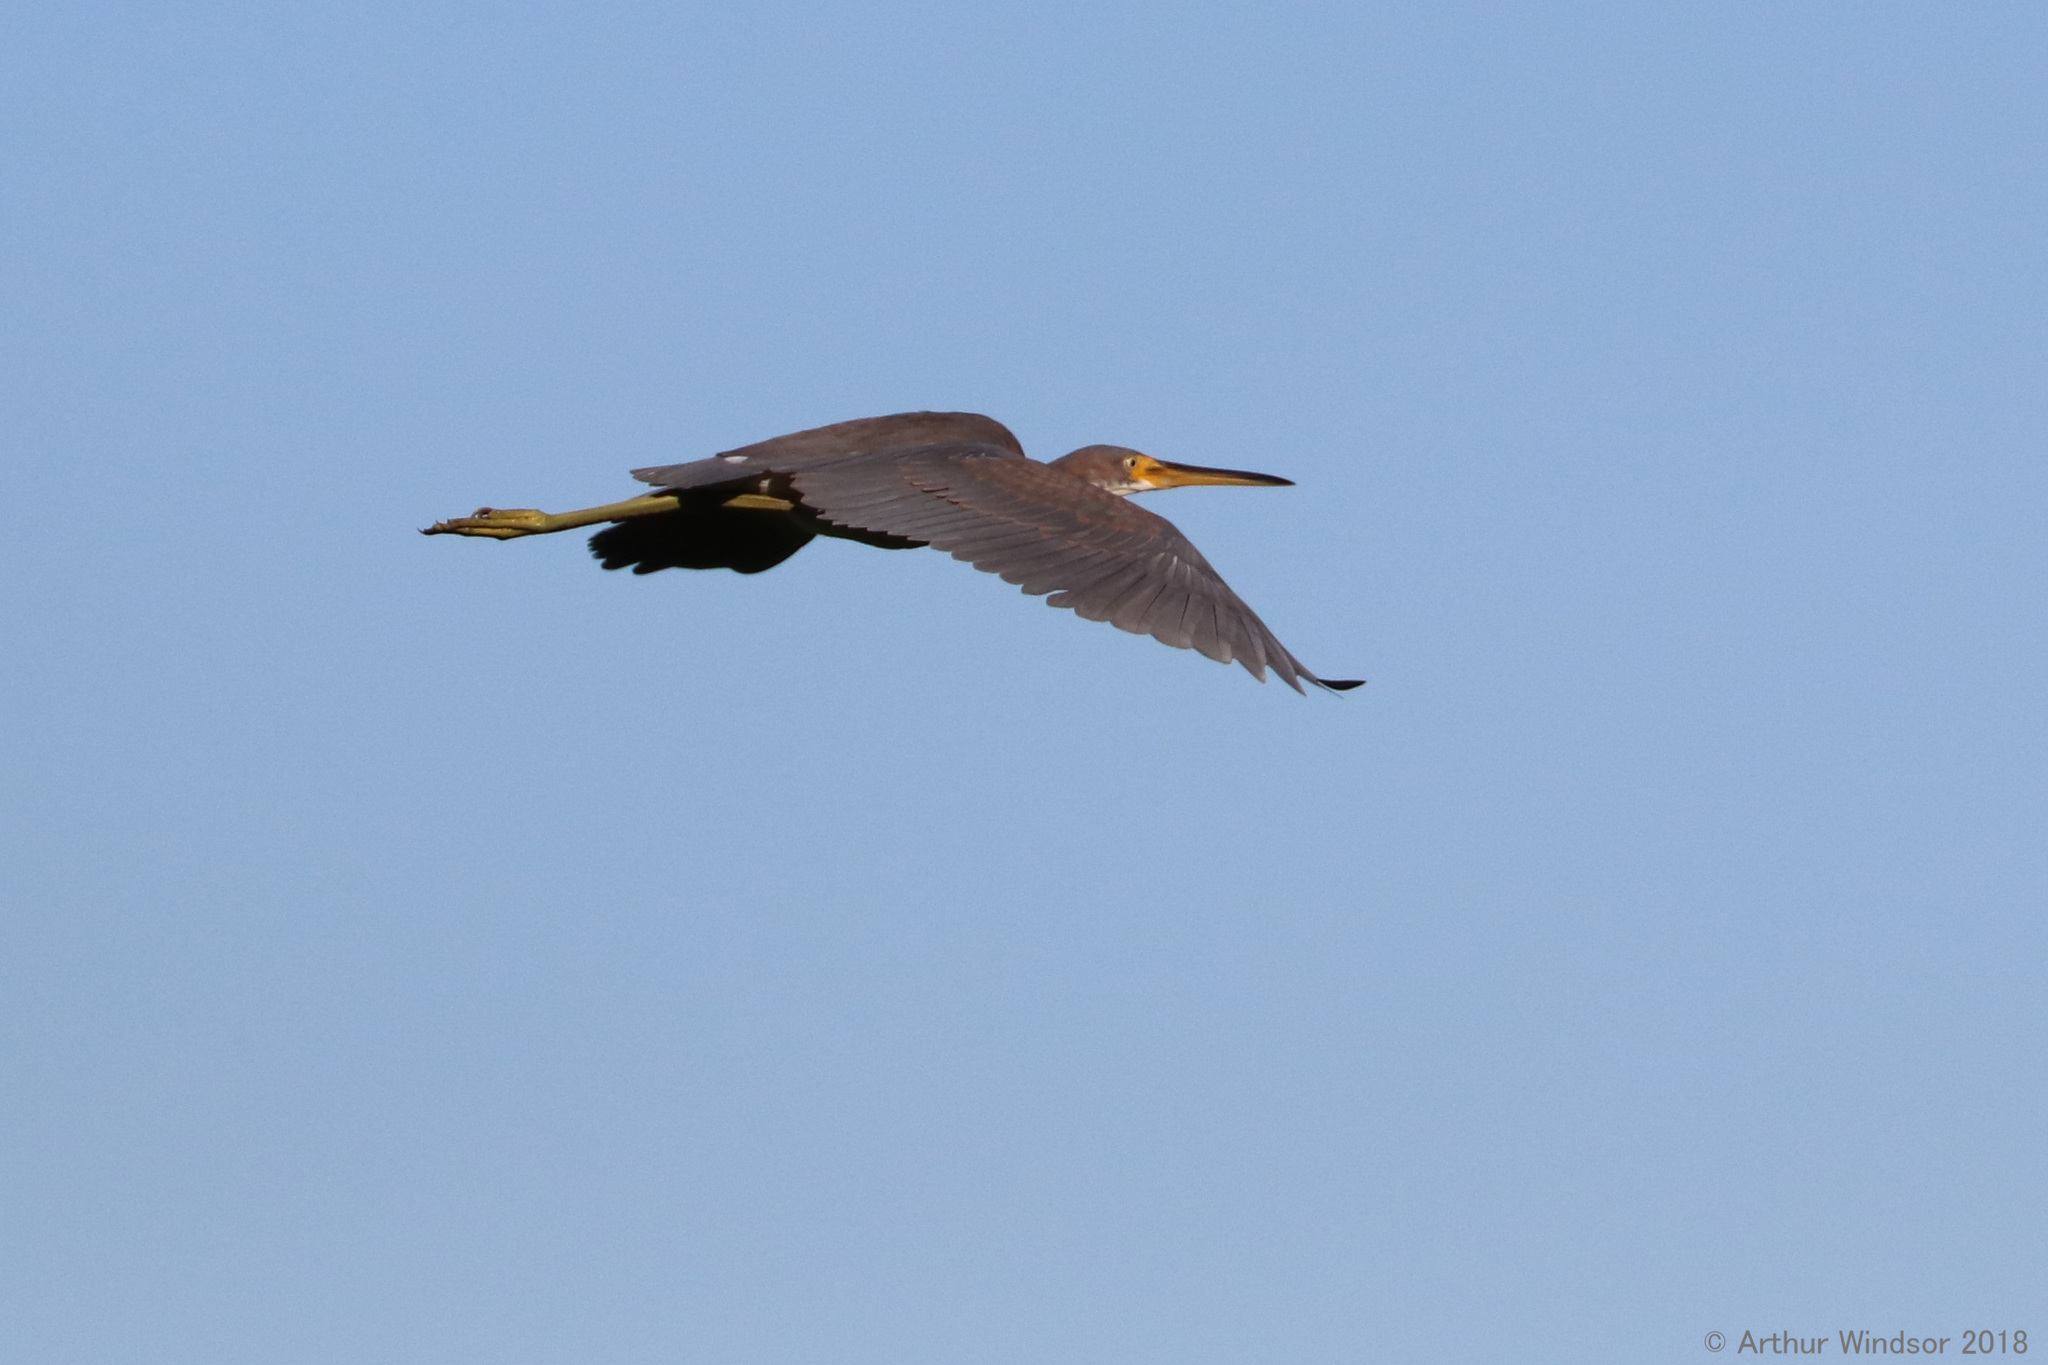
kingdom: Animalia
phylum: Chordata
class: Aves
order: Pelecaniformes
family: Ardeidae
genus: Egretta
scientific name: Egretta tricolor
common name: Tricolored heron
